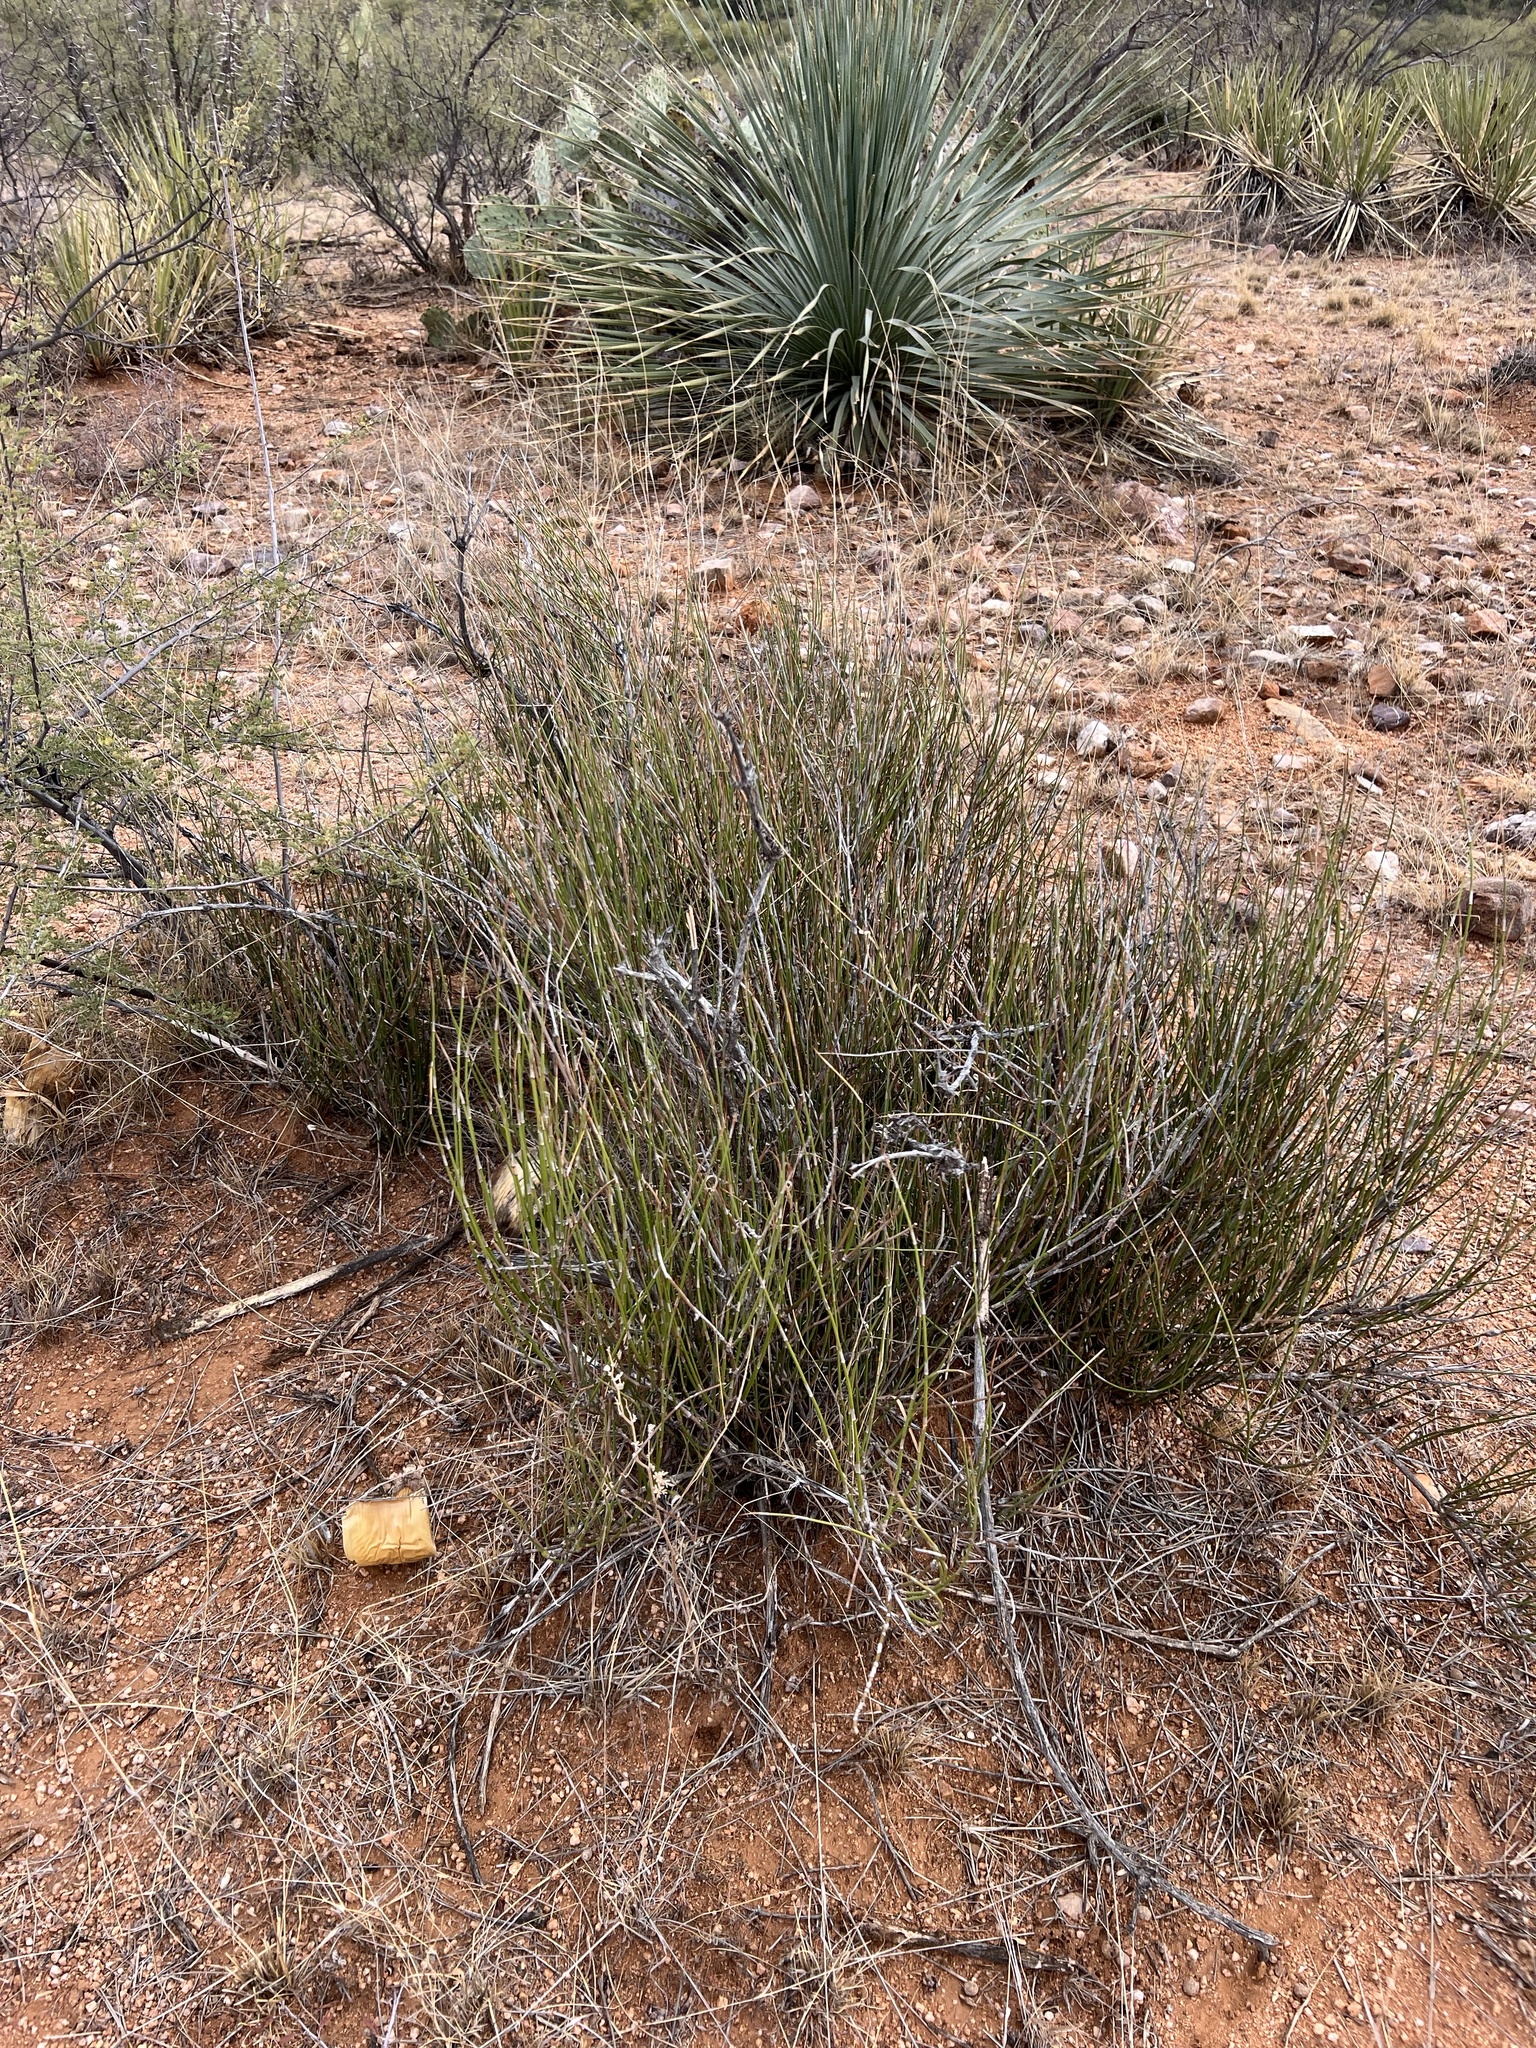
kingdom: Plantae
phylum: Tracheophyta
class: Gnetopsida
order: Ephedrales
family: Ephedraceae
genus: Ephedra
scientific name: Ephedra trifurca
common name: Mexican-tea
